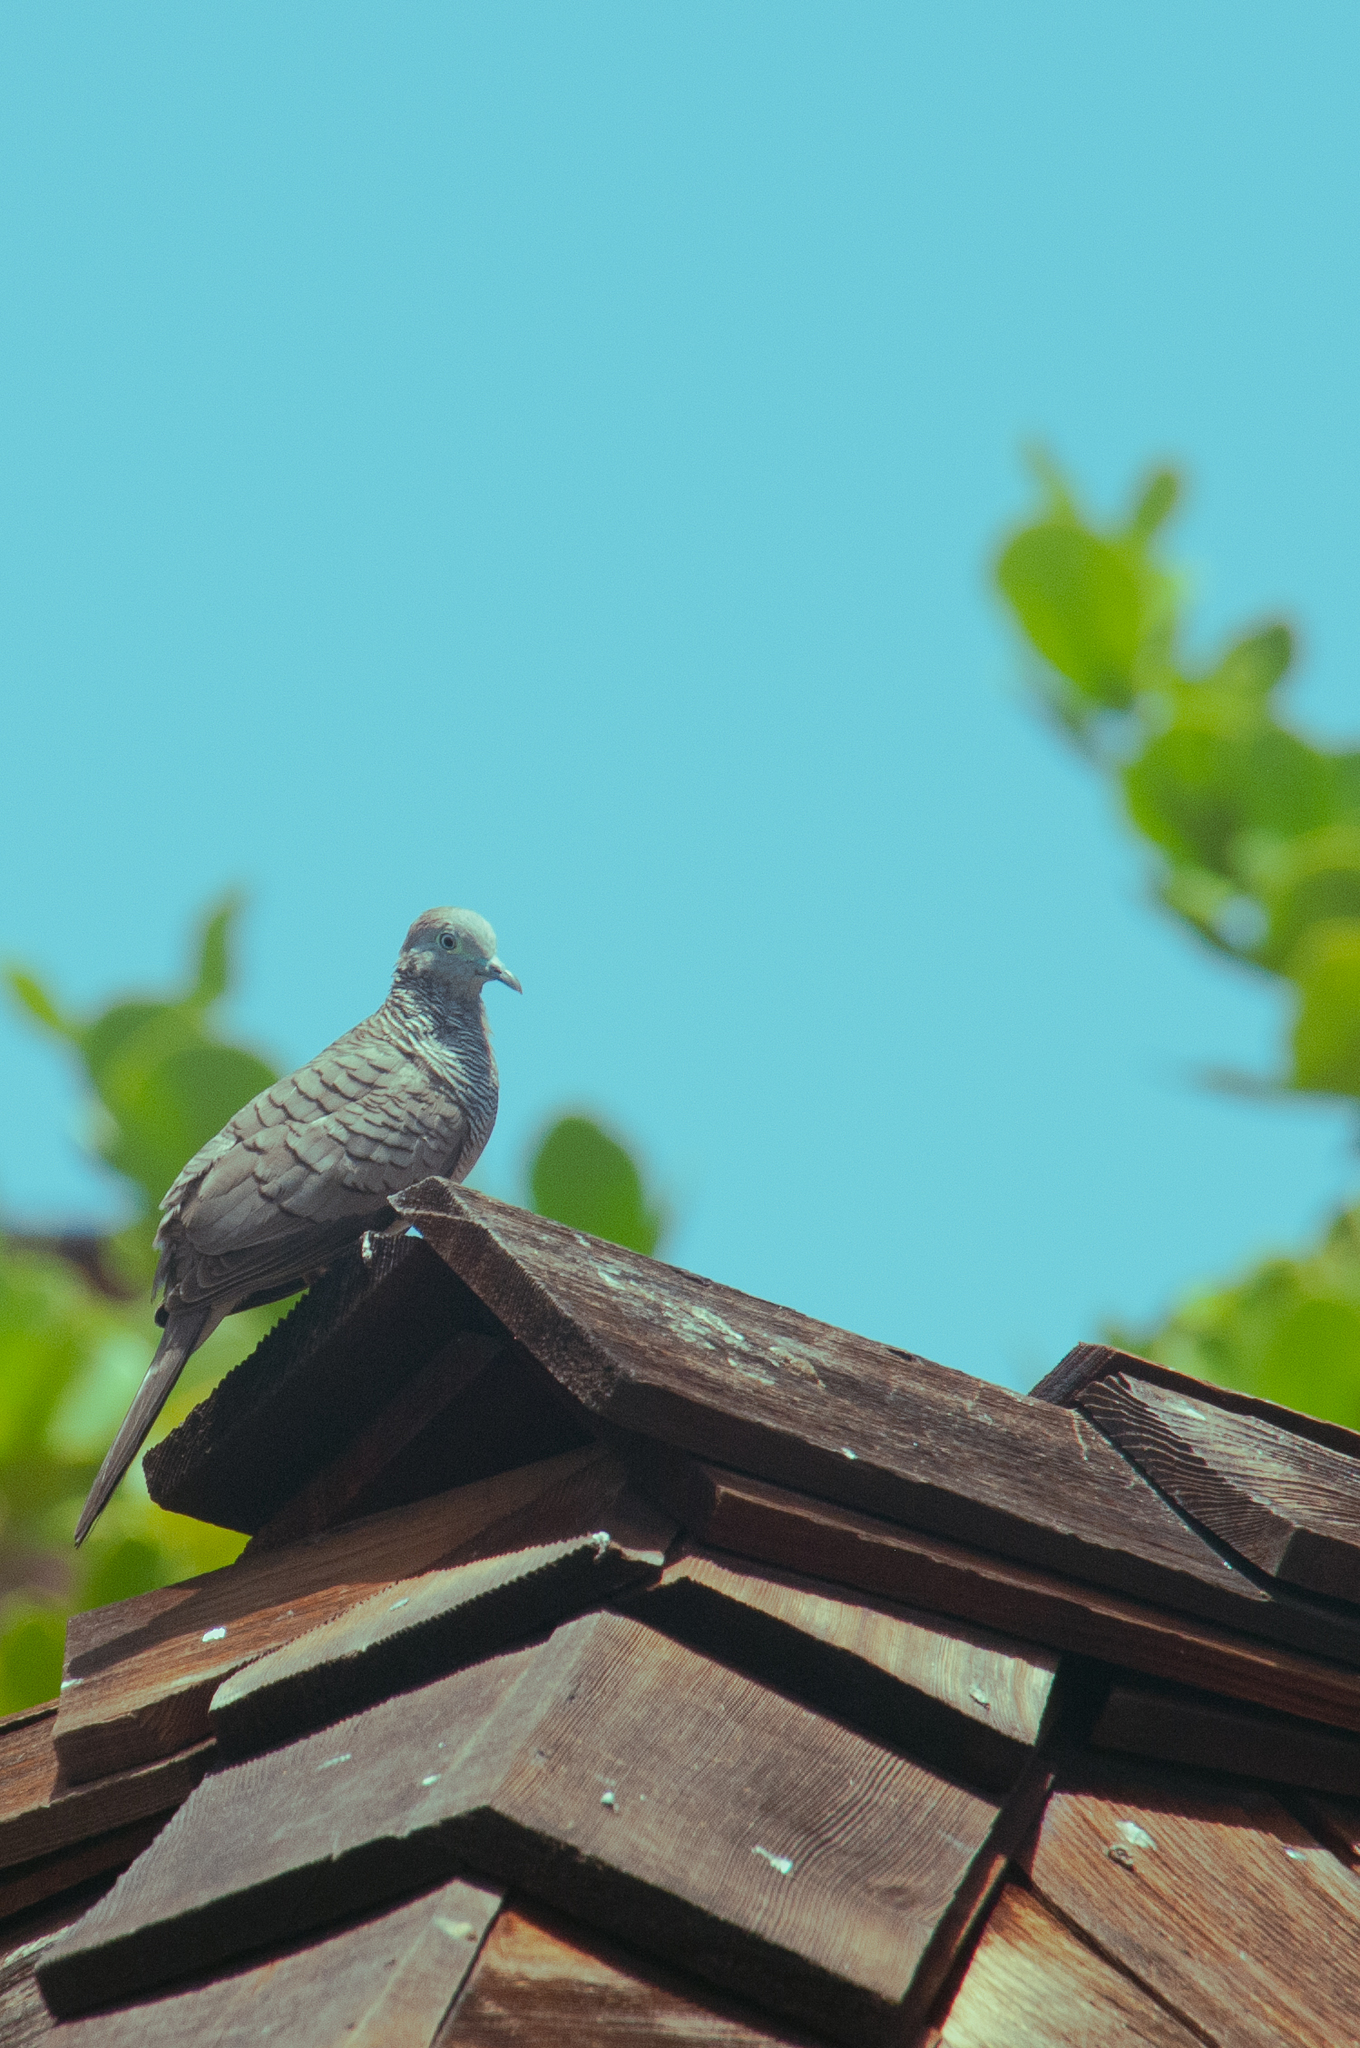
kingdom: Animalia
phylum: Chordata
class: Aves
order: Columbiformes
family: Columbidae
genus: Geopelia
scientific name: Geopelia striata
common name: Zebra dove
